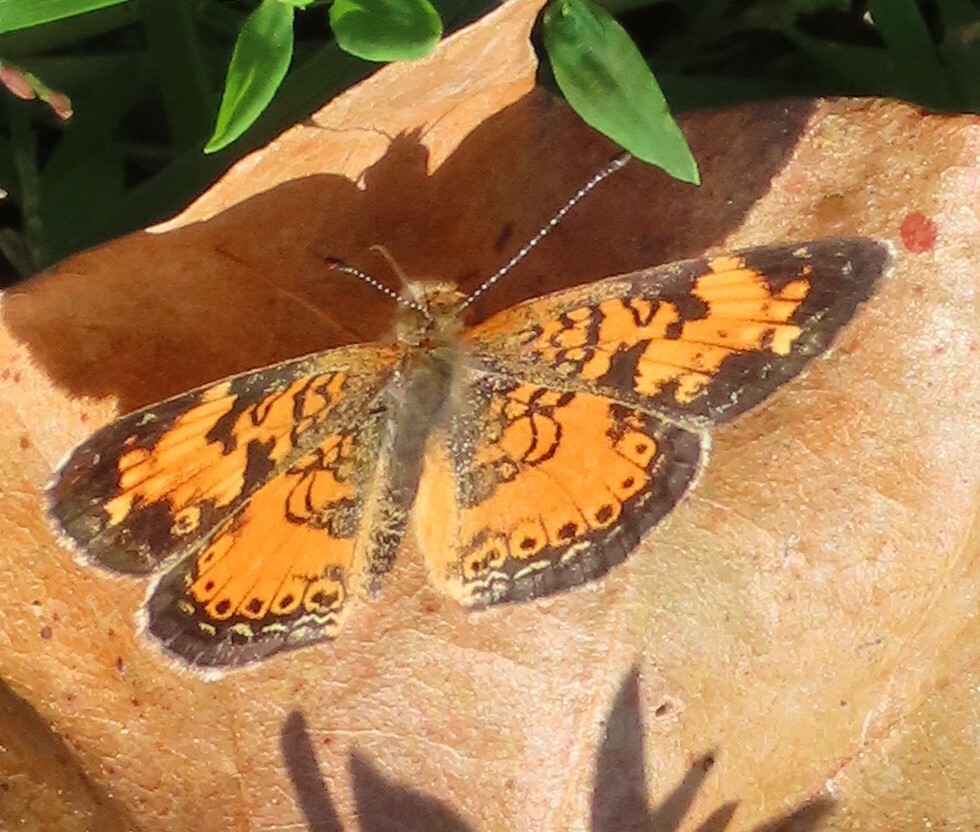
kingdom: Animalia
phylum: Arthropoda
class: Insecta
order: Lepidoptera
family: Nymphalidae
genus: Phyciodes
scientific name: Phyciodes tharos
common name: Pearl crescent
